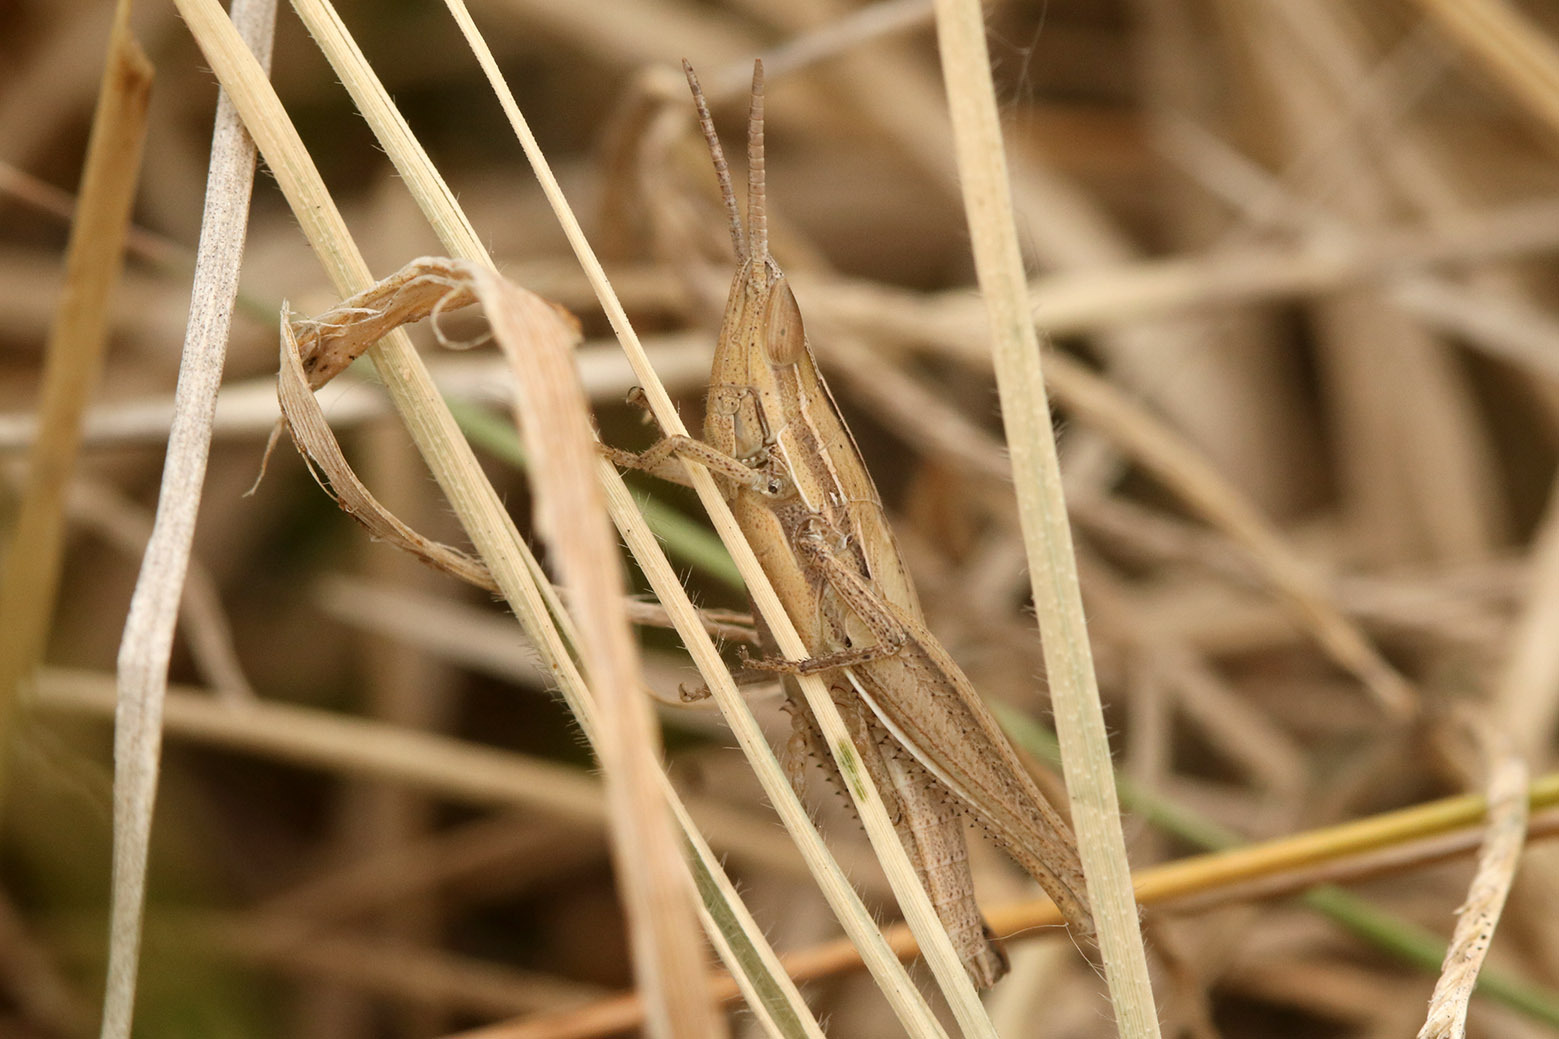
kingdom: Animalia
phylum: Arthropoda
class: Insecta
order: Orthoptera
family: Acrididae
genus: Sinipta
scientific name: Sinipta dalmani
